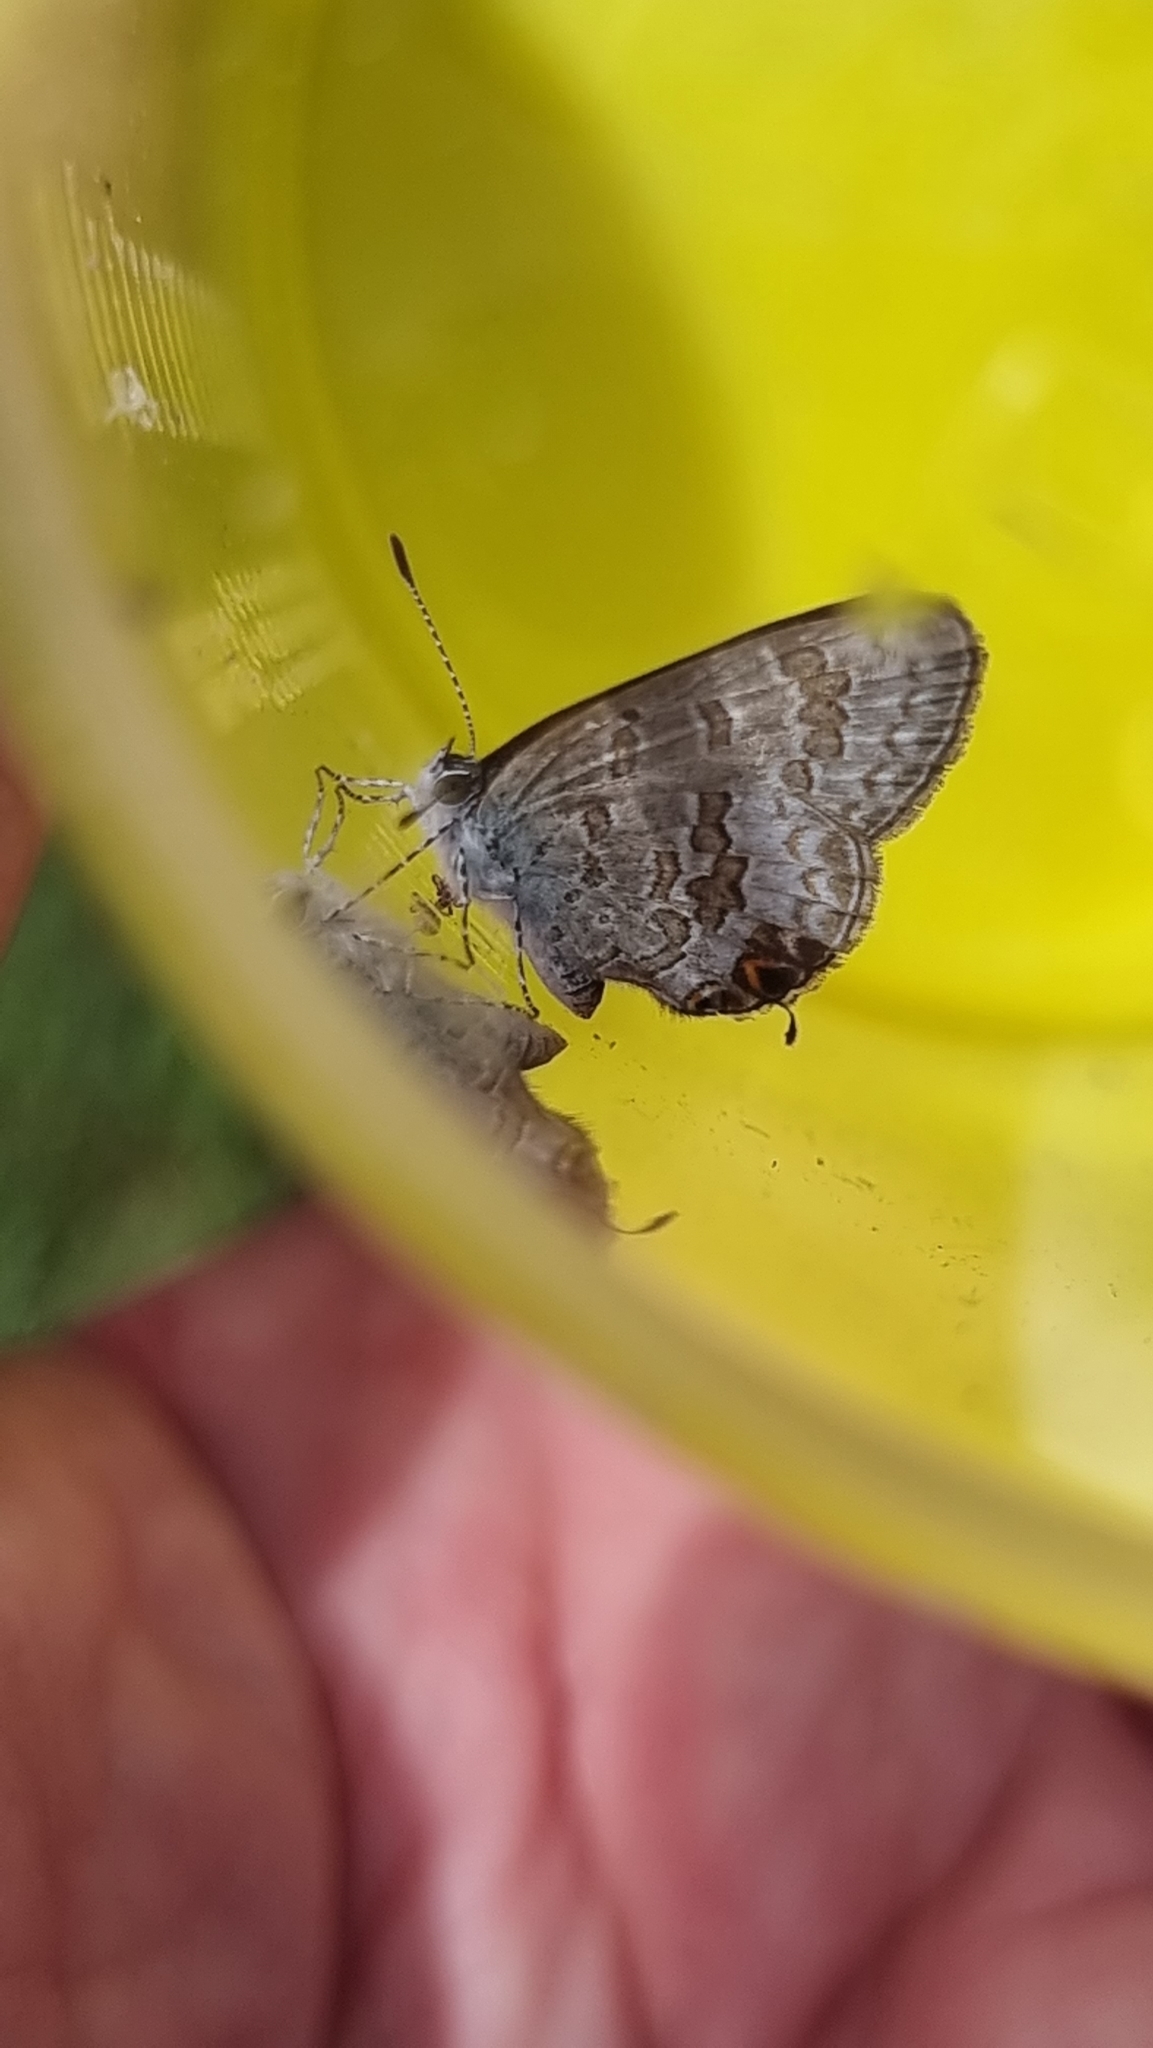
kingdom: Animalia
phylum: Arthropoda
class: Insecta
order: Lepidoptera
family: Lycaenidae
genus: Catopyrops
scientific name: Catopyrops florinda
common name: Speckled line-blue
